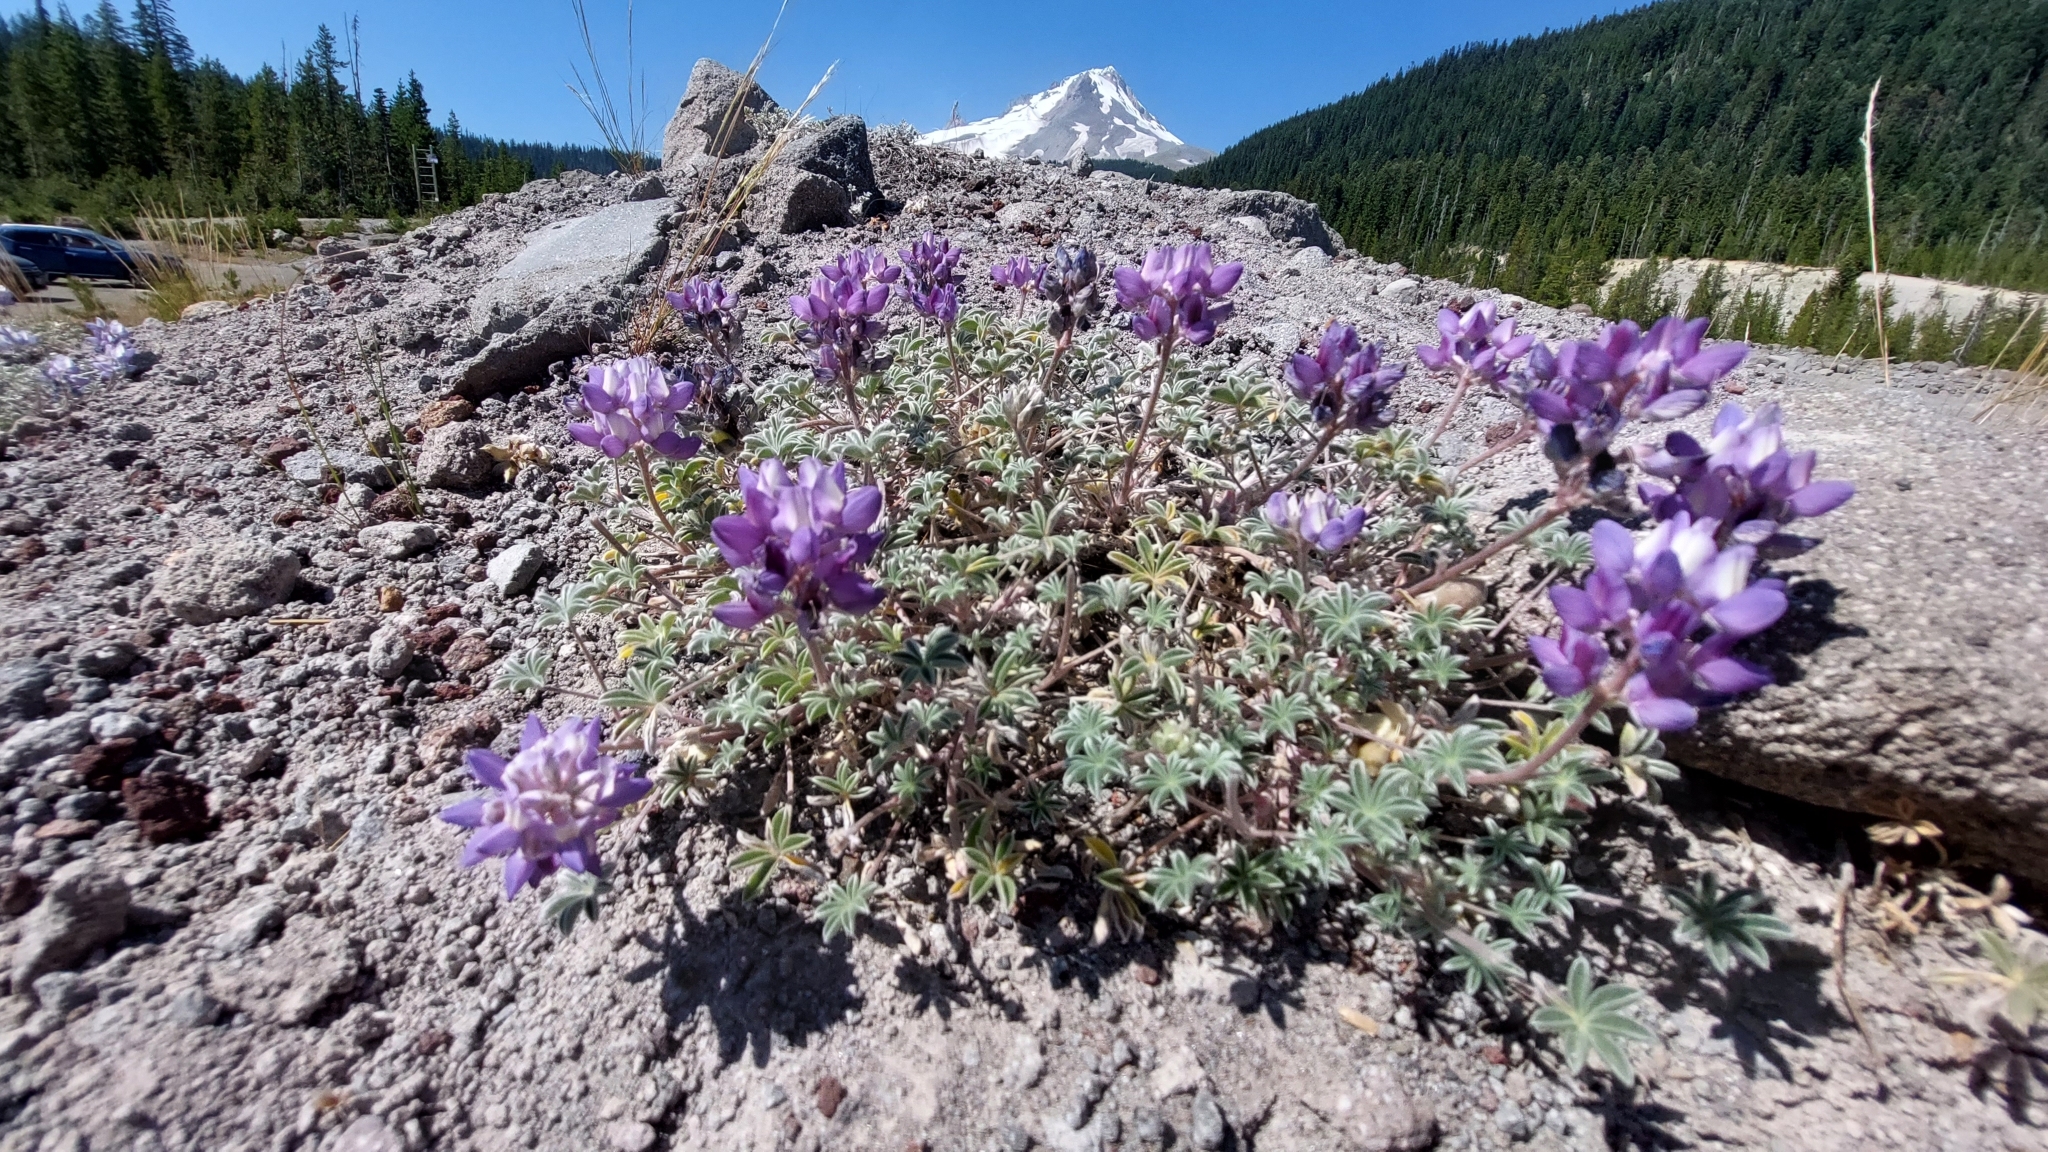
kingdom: Plantae
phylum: Tracheophyta
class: Magnoliopsida
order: Fabales
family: Fabaceae
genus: Lupinus
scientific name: Lupinus lepidus
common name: Prairie lupine
